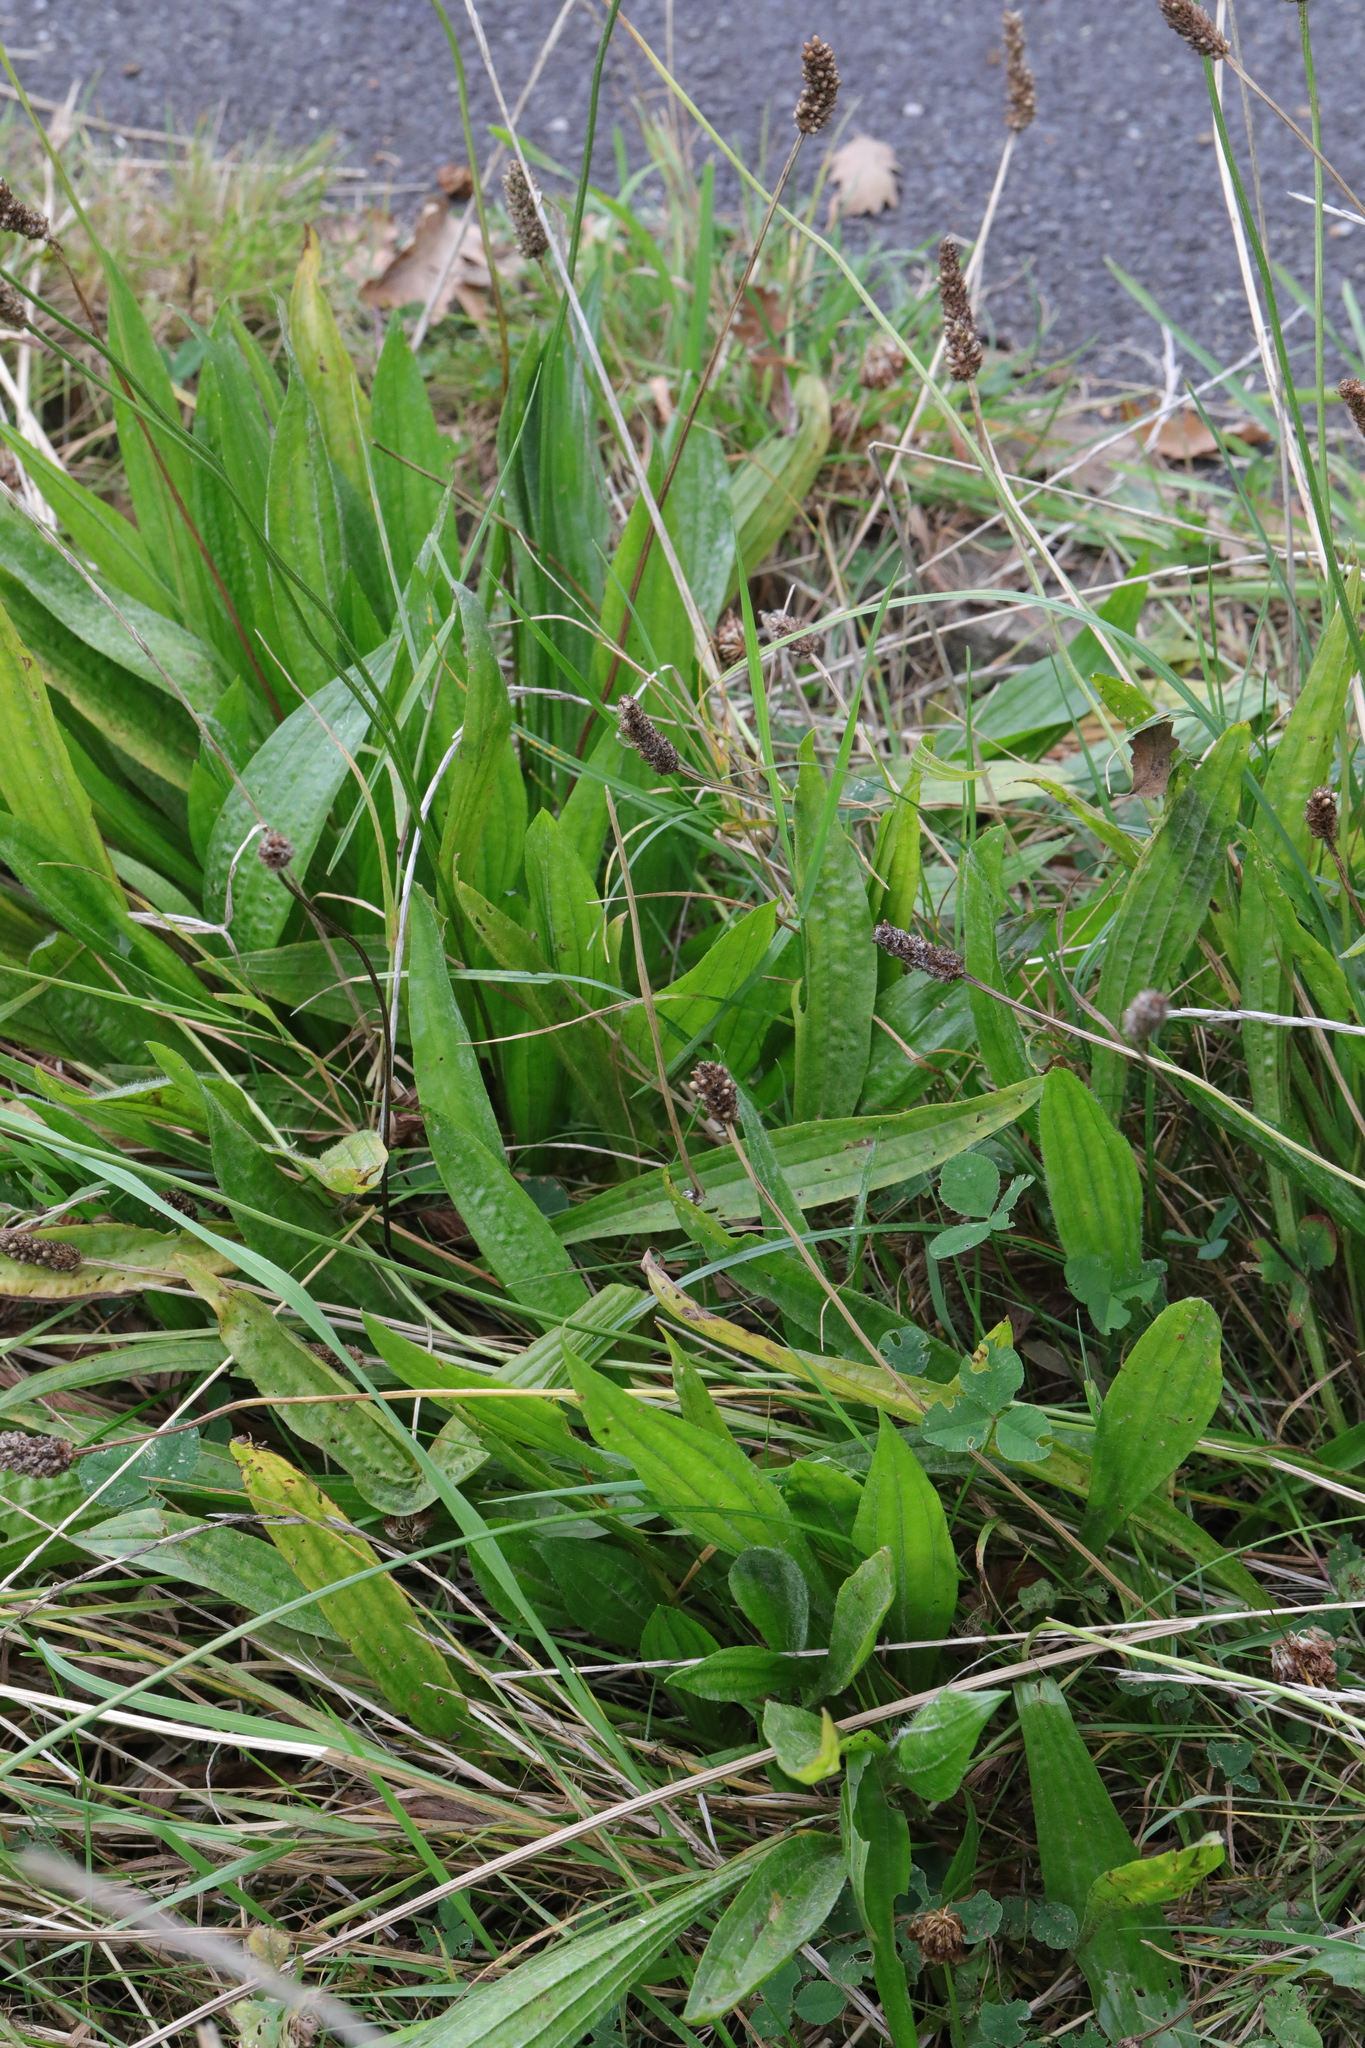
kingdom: Plantae
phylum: Tracheophyta
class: Magnoliopsida
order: Lamiales
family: Plantaginaceae
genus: Plantago
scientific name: Plantago lanceolata
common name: Ribwort plantain
